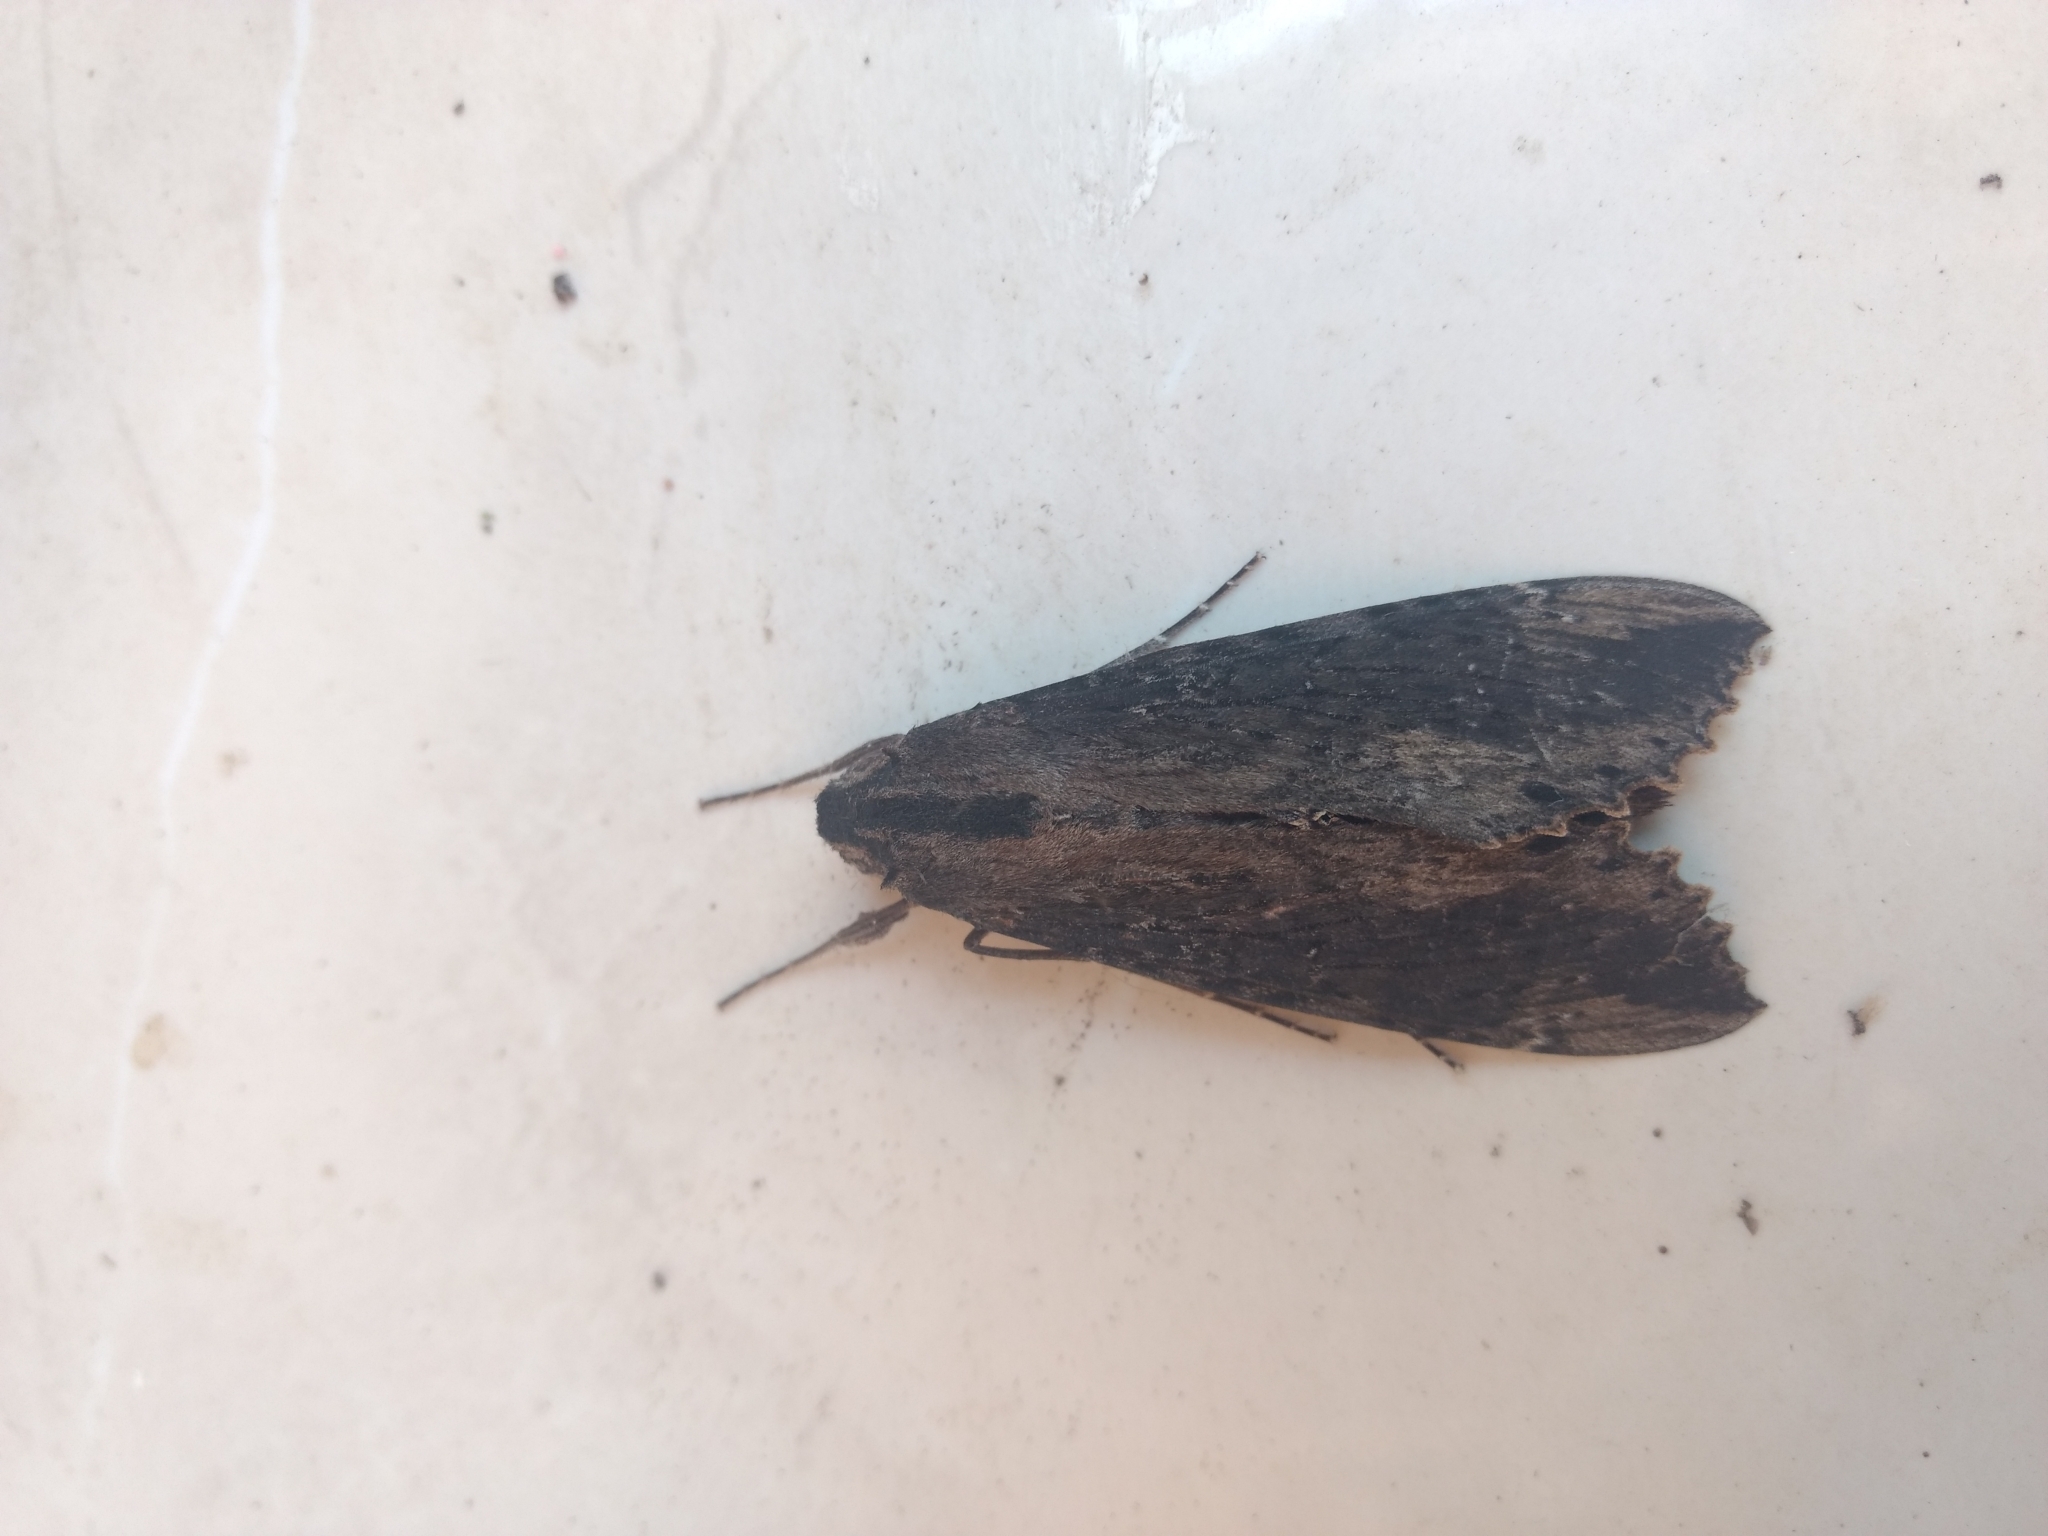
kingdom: Animalia
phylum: Arthropoda
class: Insecta
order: Lepidoptera
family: Sphingidae
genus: Erinnyis
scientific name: Erinnyis crameri
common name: Cramer's sphinx
